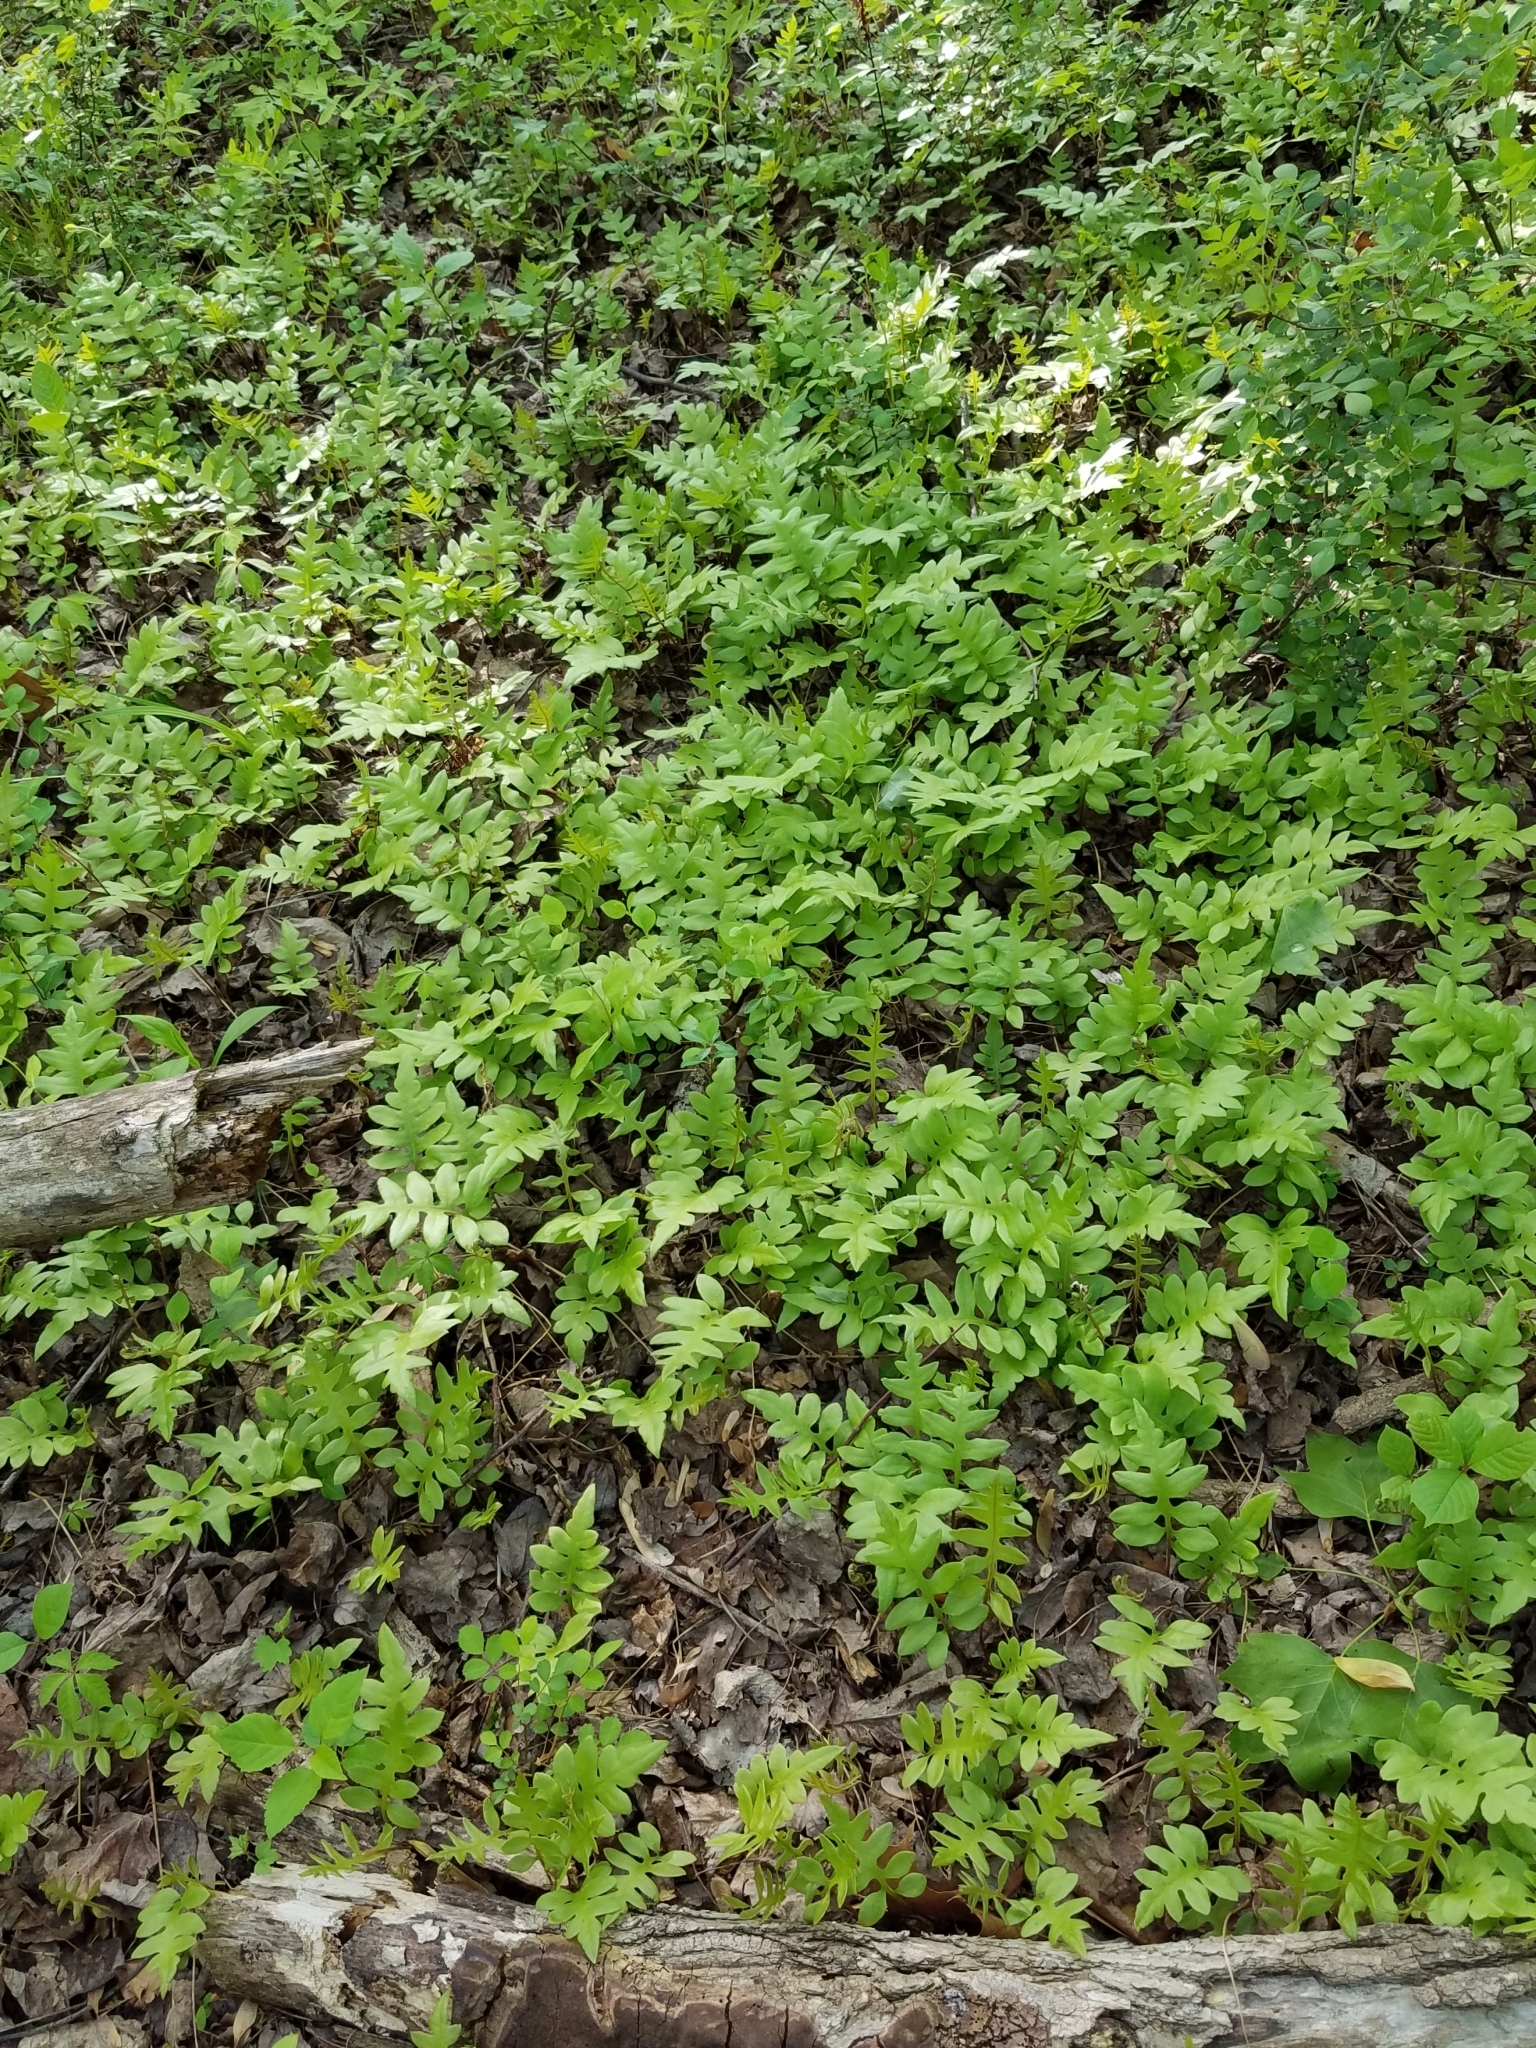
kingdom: Plantae
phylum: Tracheophyta
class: Polypodiopsida
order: Polypodiales
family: Blechnaceae
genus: Lorinseria
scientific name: Lorinseria areolata
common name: Dwarf chain fern
